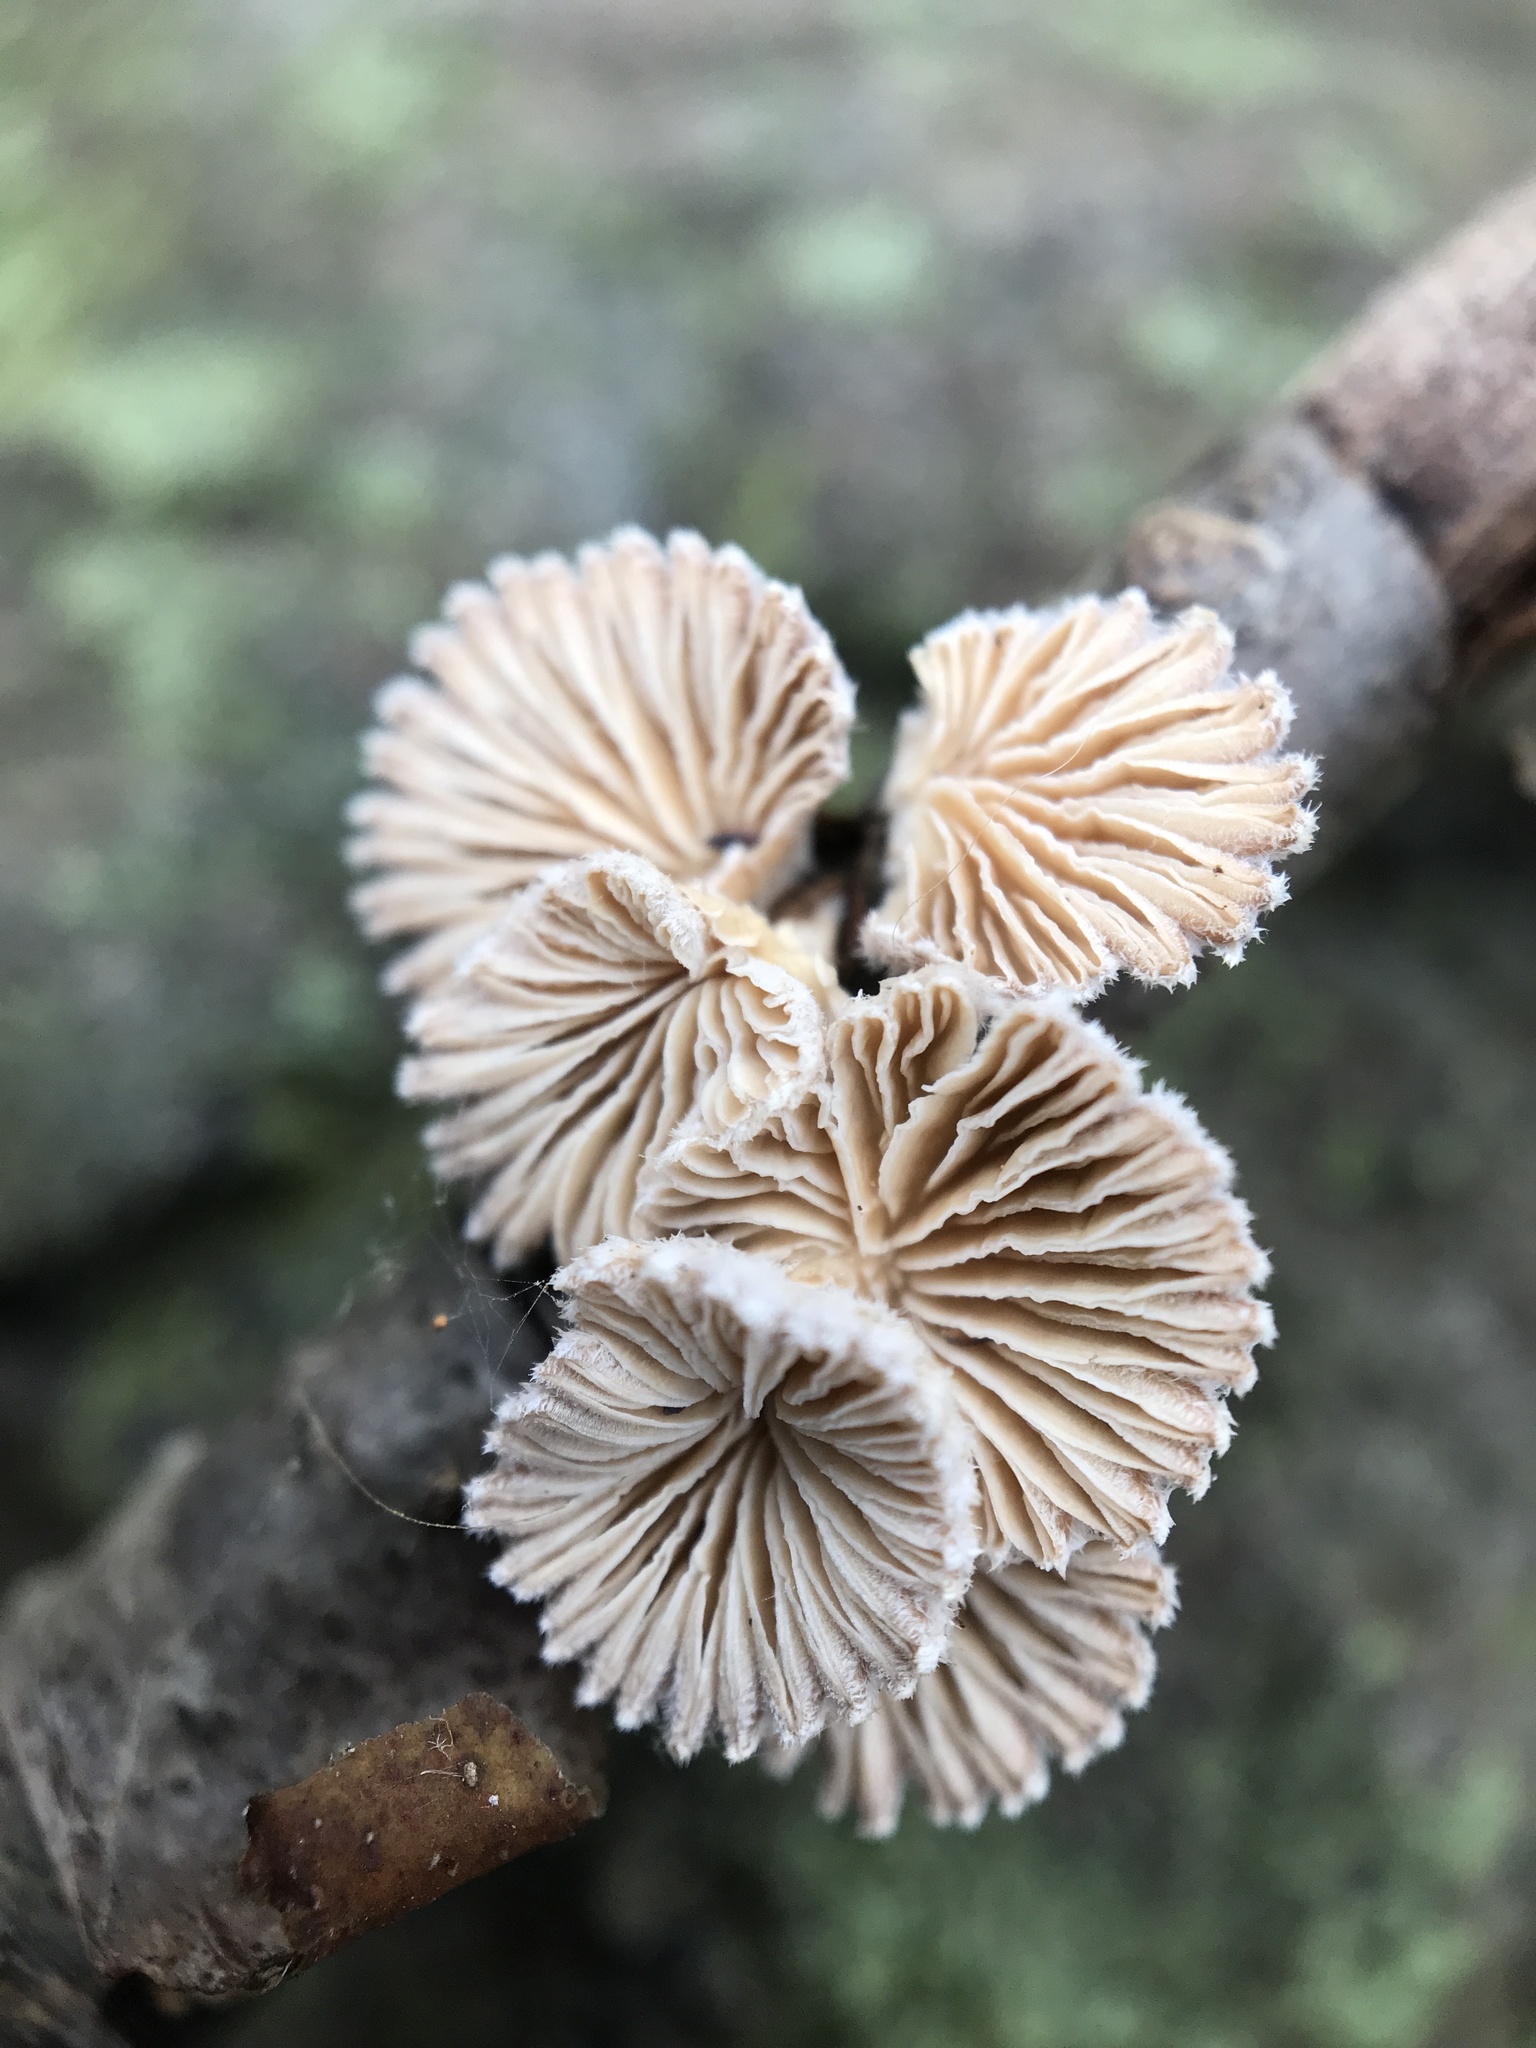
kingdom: Fungi
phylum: Basidiomycota
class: Agaricomycetes
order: Agaricales
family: Schizophyllaceae
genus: Schizophyllum
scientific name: Schizophyllum commune
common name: Common porecrust
